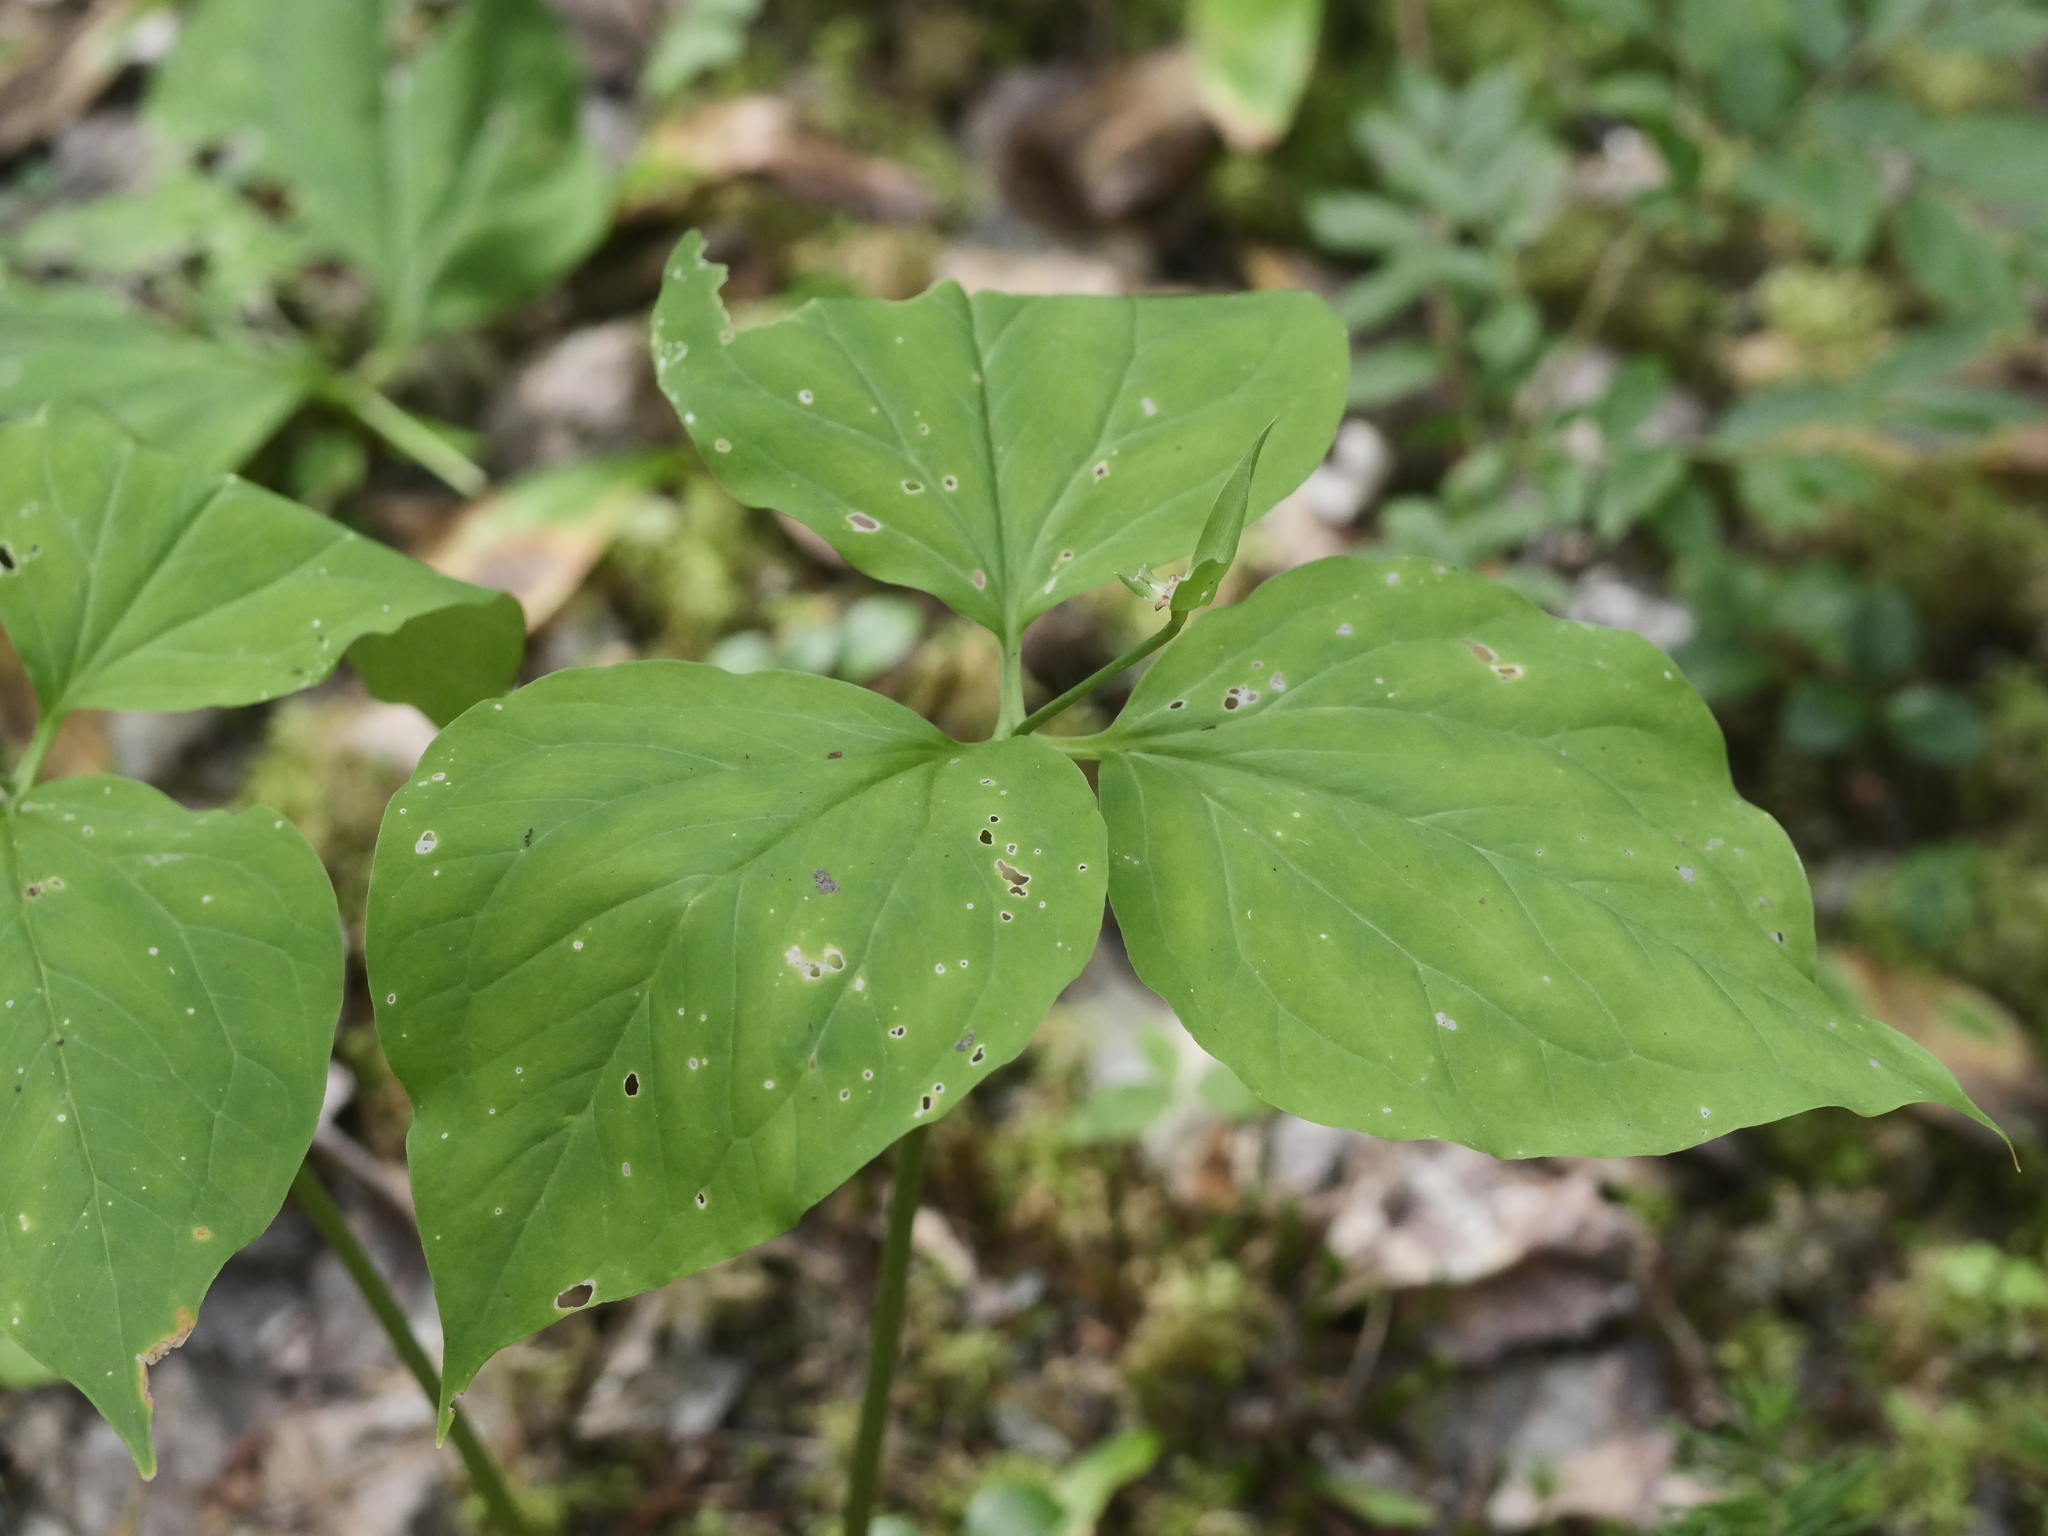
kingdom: Plantae
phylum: Tracheophyta
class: Liliopsida
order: Liliales
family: Melanthiaceae
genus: Trillium
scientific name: Trillium undulatum
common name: Paint trillium
